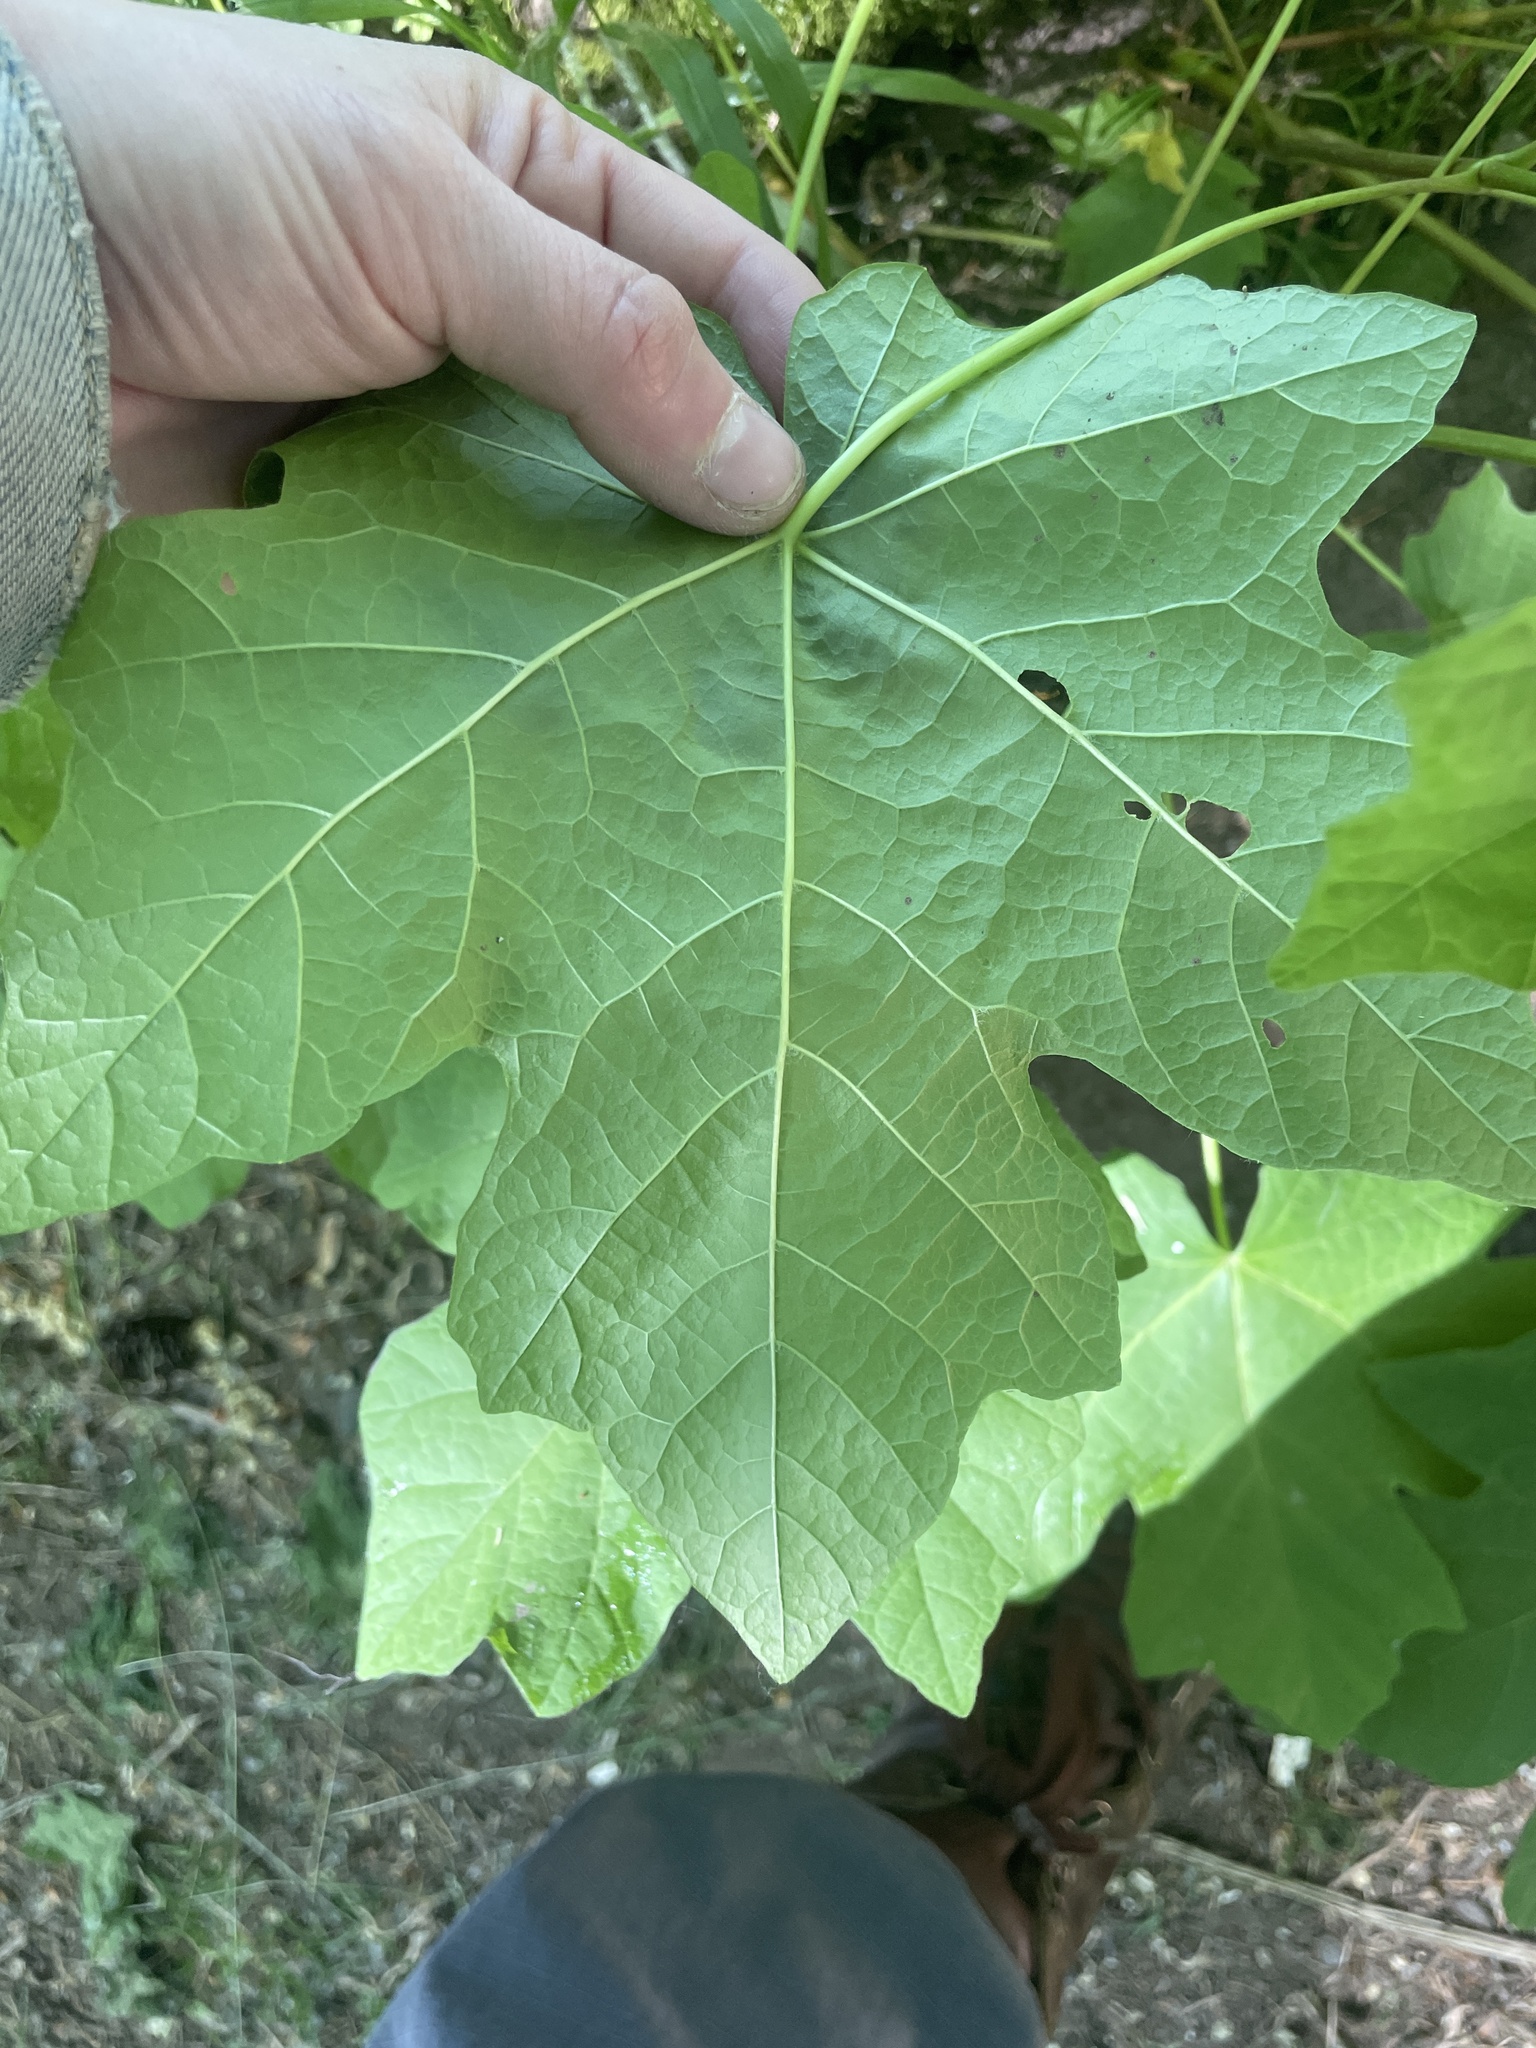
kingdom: Plantae
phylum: Tracheophyta
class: Magnoliopsida
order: Sapindales
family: Sapindaceae
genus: Acer
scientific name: Acer macrophyllum
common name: Oregon maple
